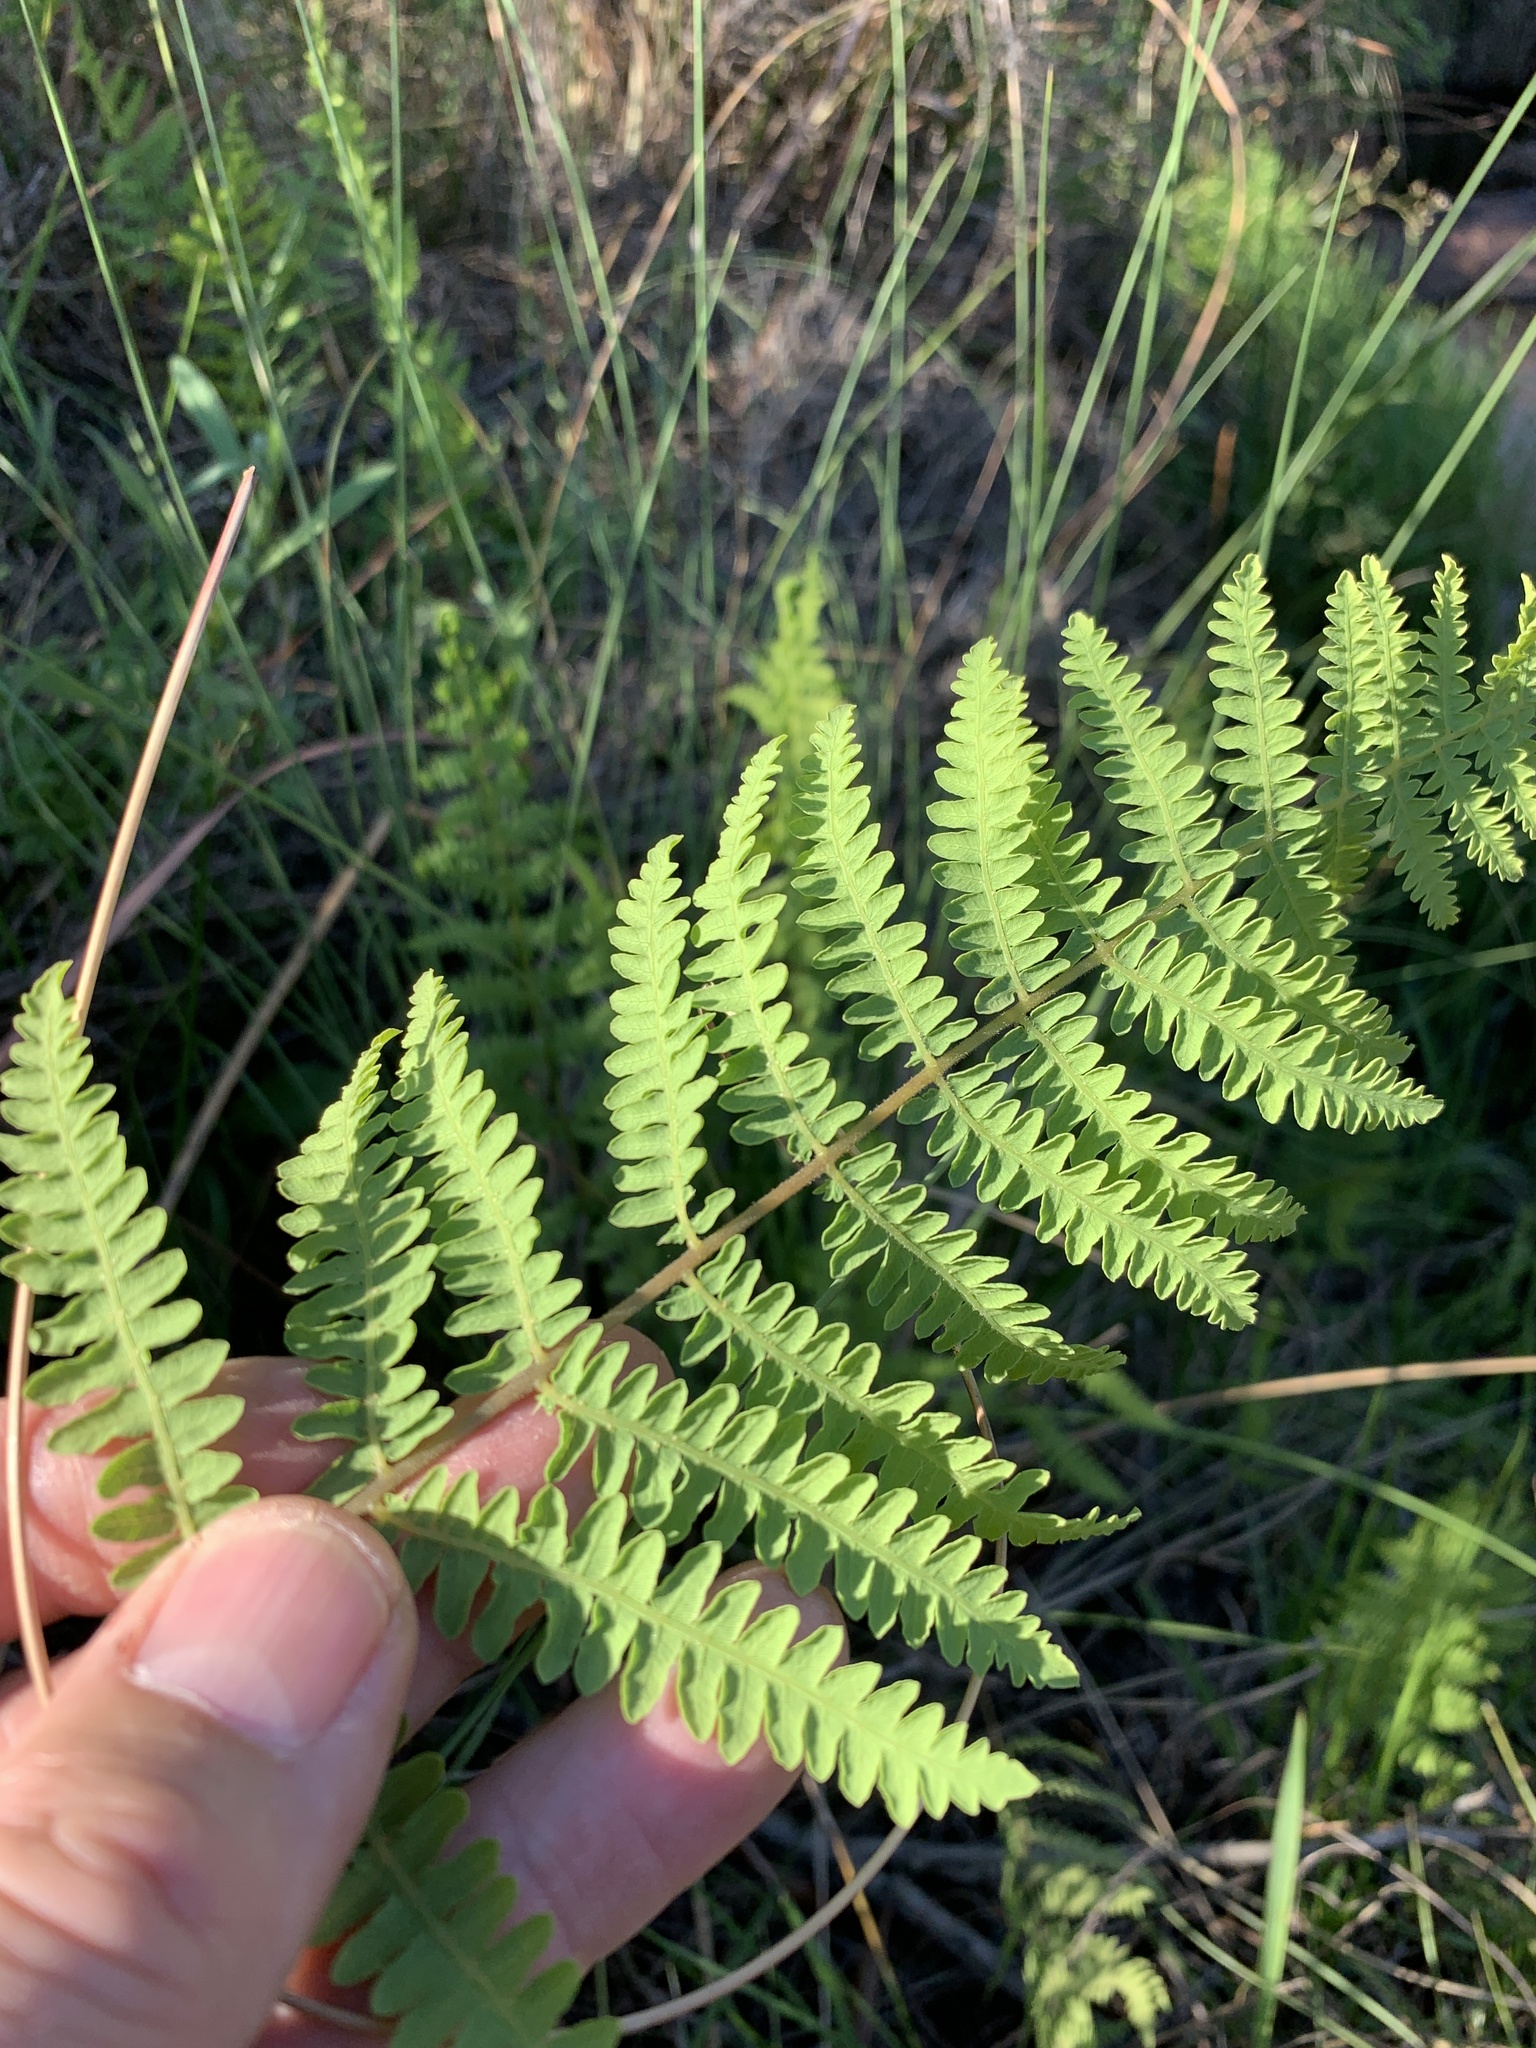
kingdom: Plantae
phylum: Tracheophyta
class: Polypodiopsida
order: Polypodiales
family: Thelypteridaceae
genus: Thelypteris
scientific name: Thelypteris confluens
